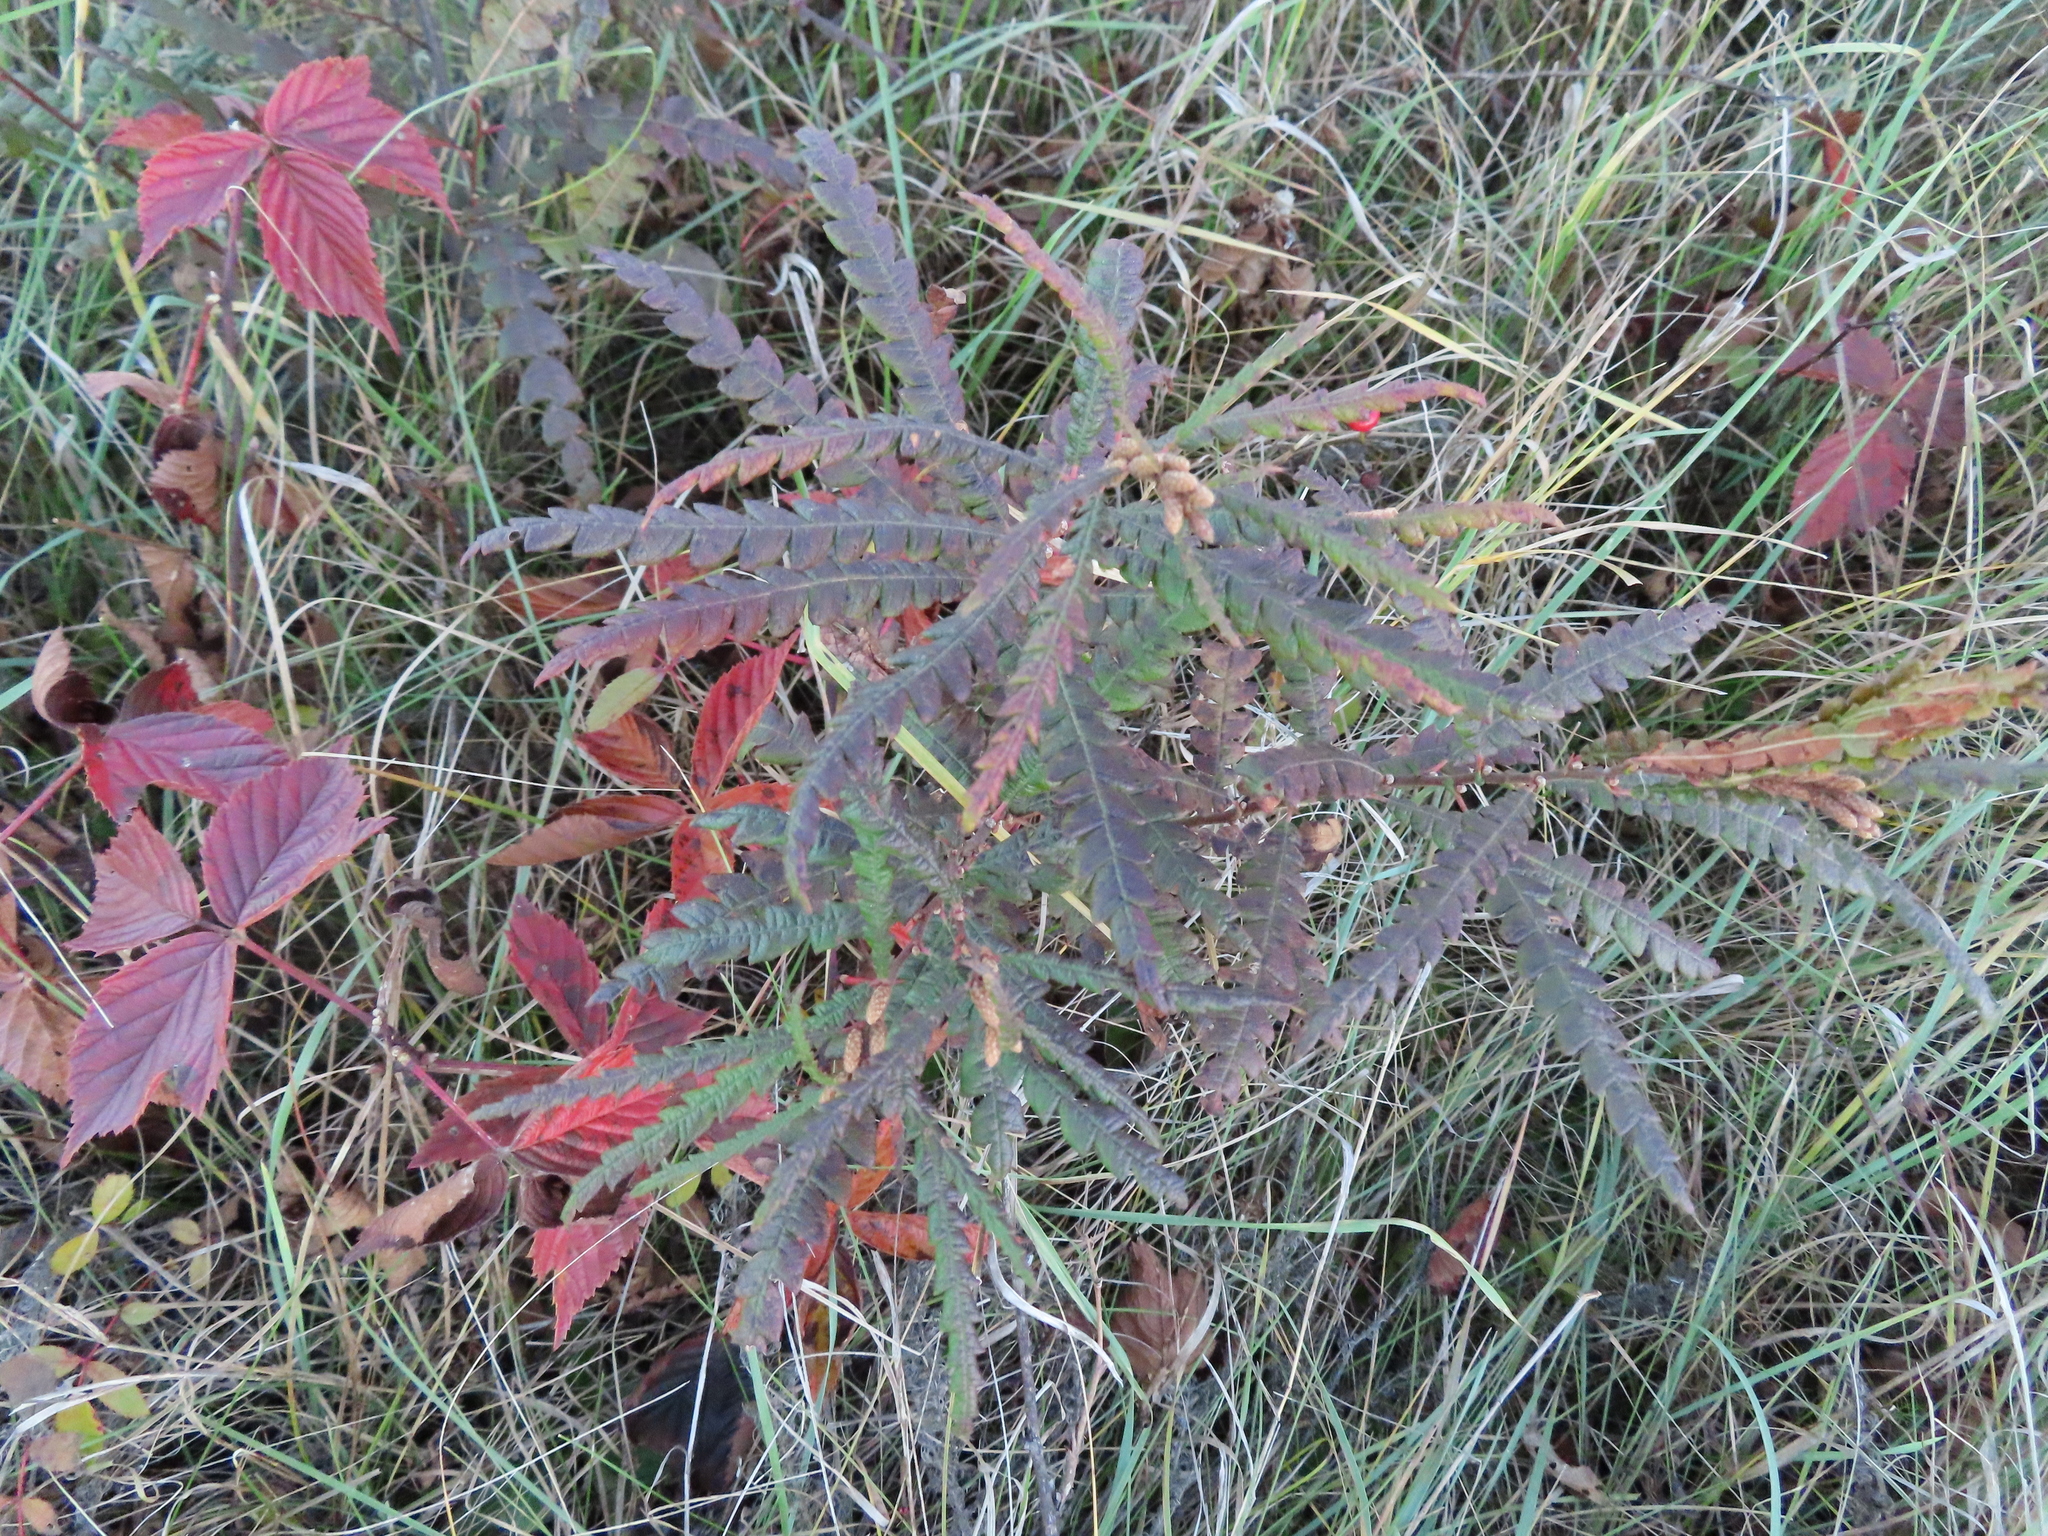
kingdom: Plantae
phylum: Tracheophyta
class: Magnoliopsida
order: Fagales
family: Myricaceae
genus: Comptonia
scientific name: Comptonia peregrina
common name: Sweet-fern
